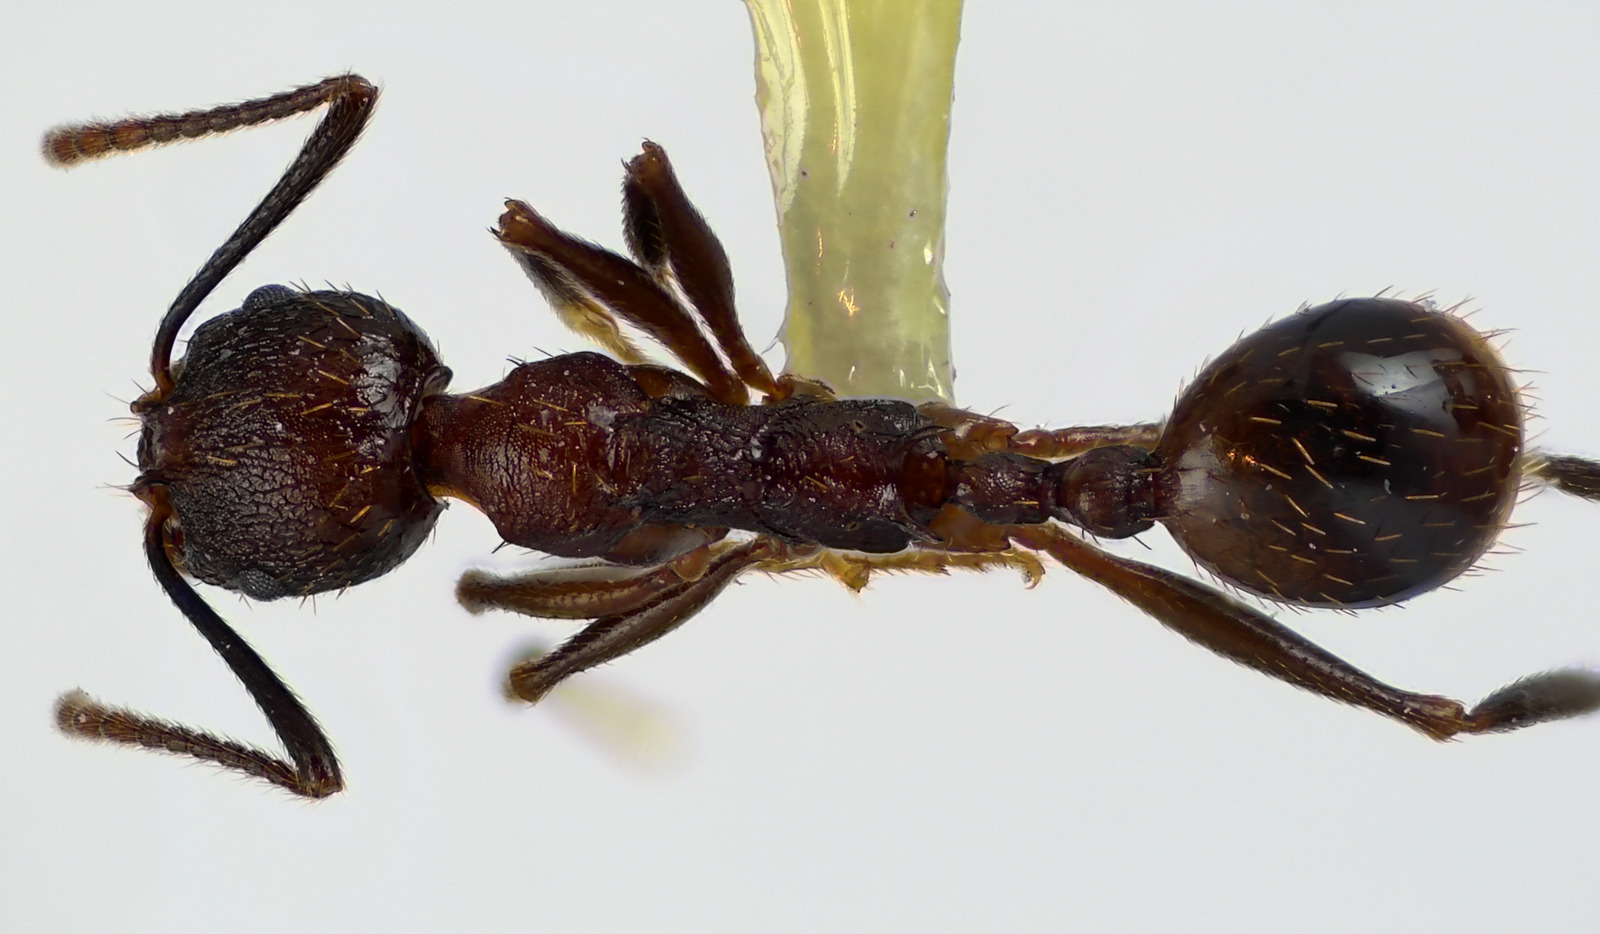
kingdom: Animalia
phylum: Arthropoda
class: Insecta
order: Hymenoptera
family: Formicidae
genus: Aphaenogaster
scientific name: Aphaenogaster fulva
